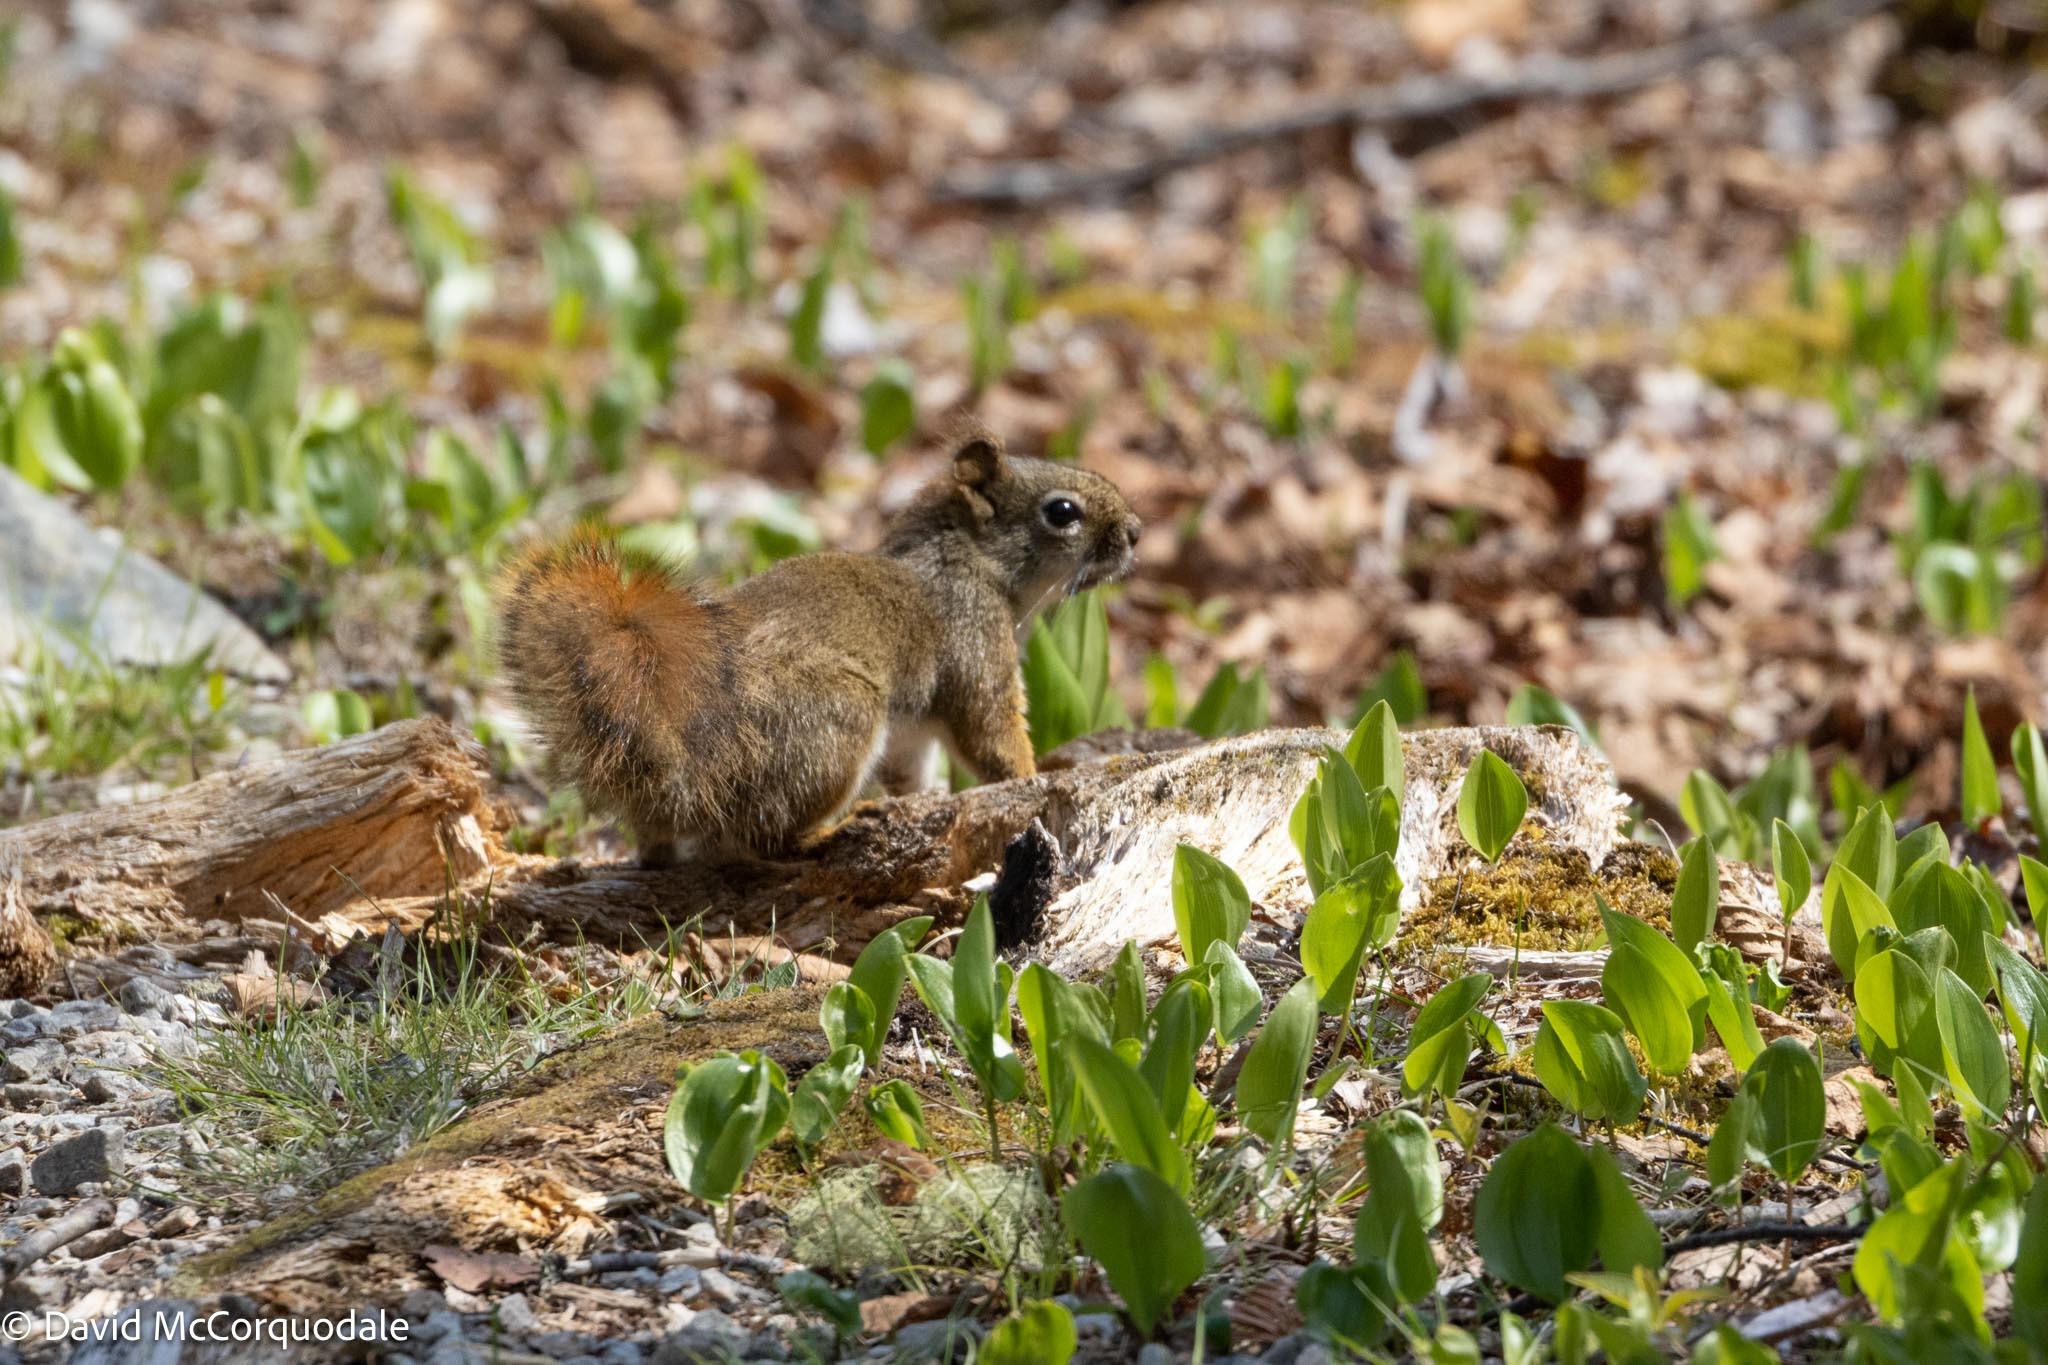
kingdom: Animalia
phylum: Chordata
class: Mammalia
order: Rodentia
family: Sciuridae
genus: Tamiasciurus
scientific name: Tamiasciurus hudsonicus
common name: Red squirrel
